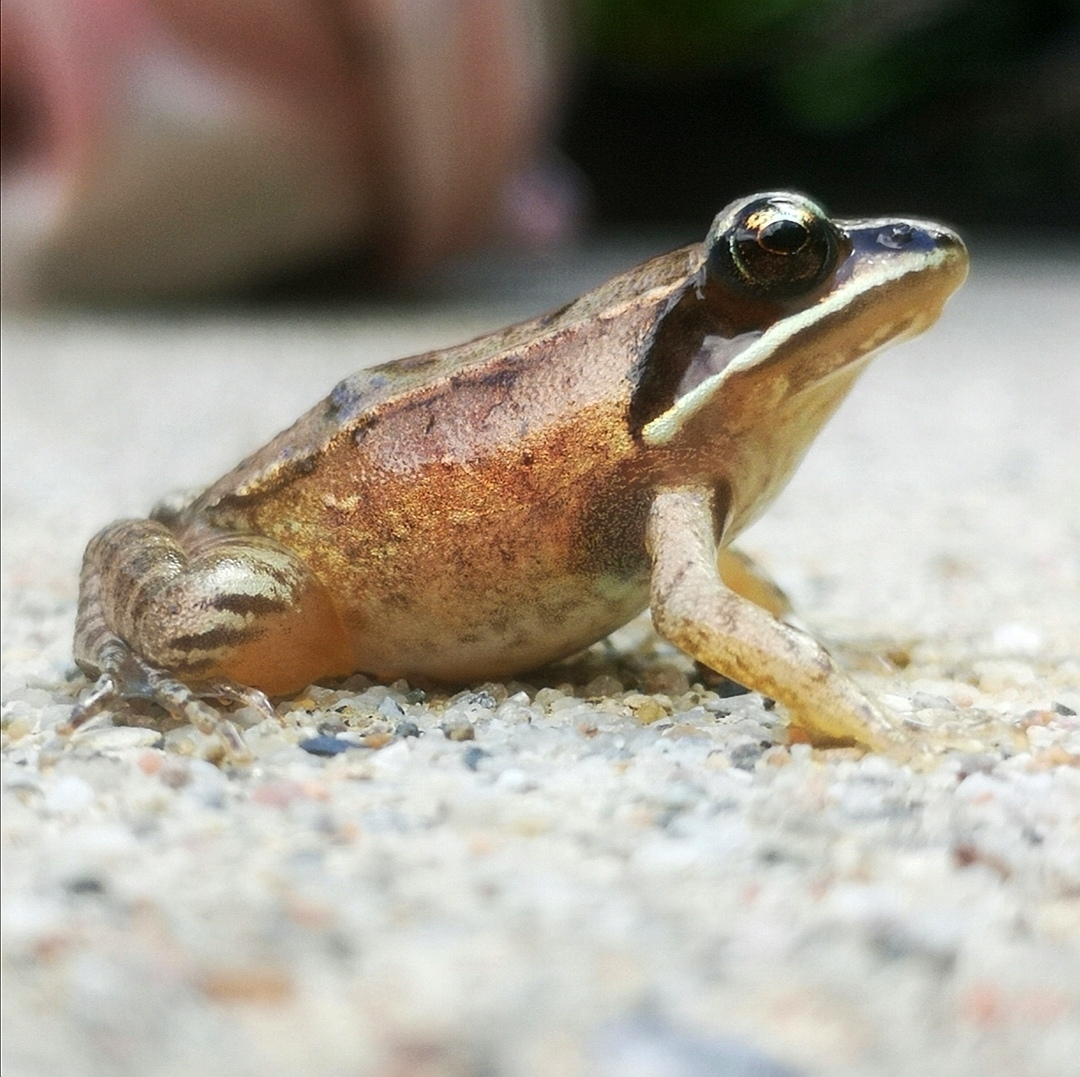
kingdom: Animalia
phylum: Chordata
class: Amphibia
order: Anura
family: Ranidae
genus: Lithobates
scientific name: Lithobates sylvaticus
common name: Wood frog
